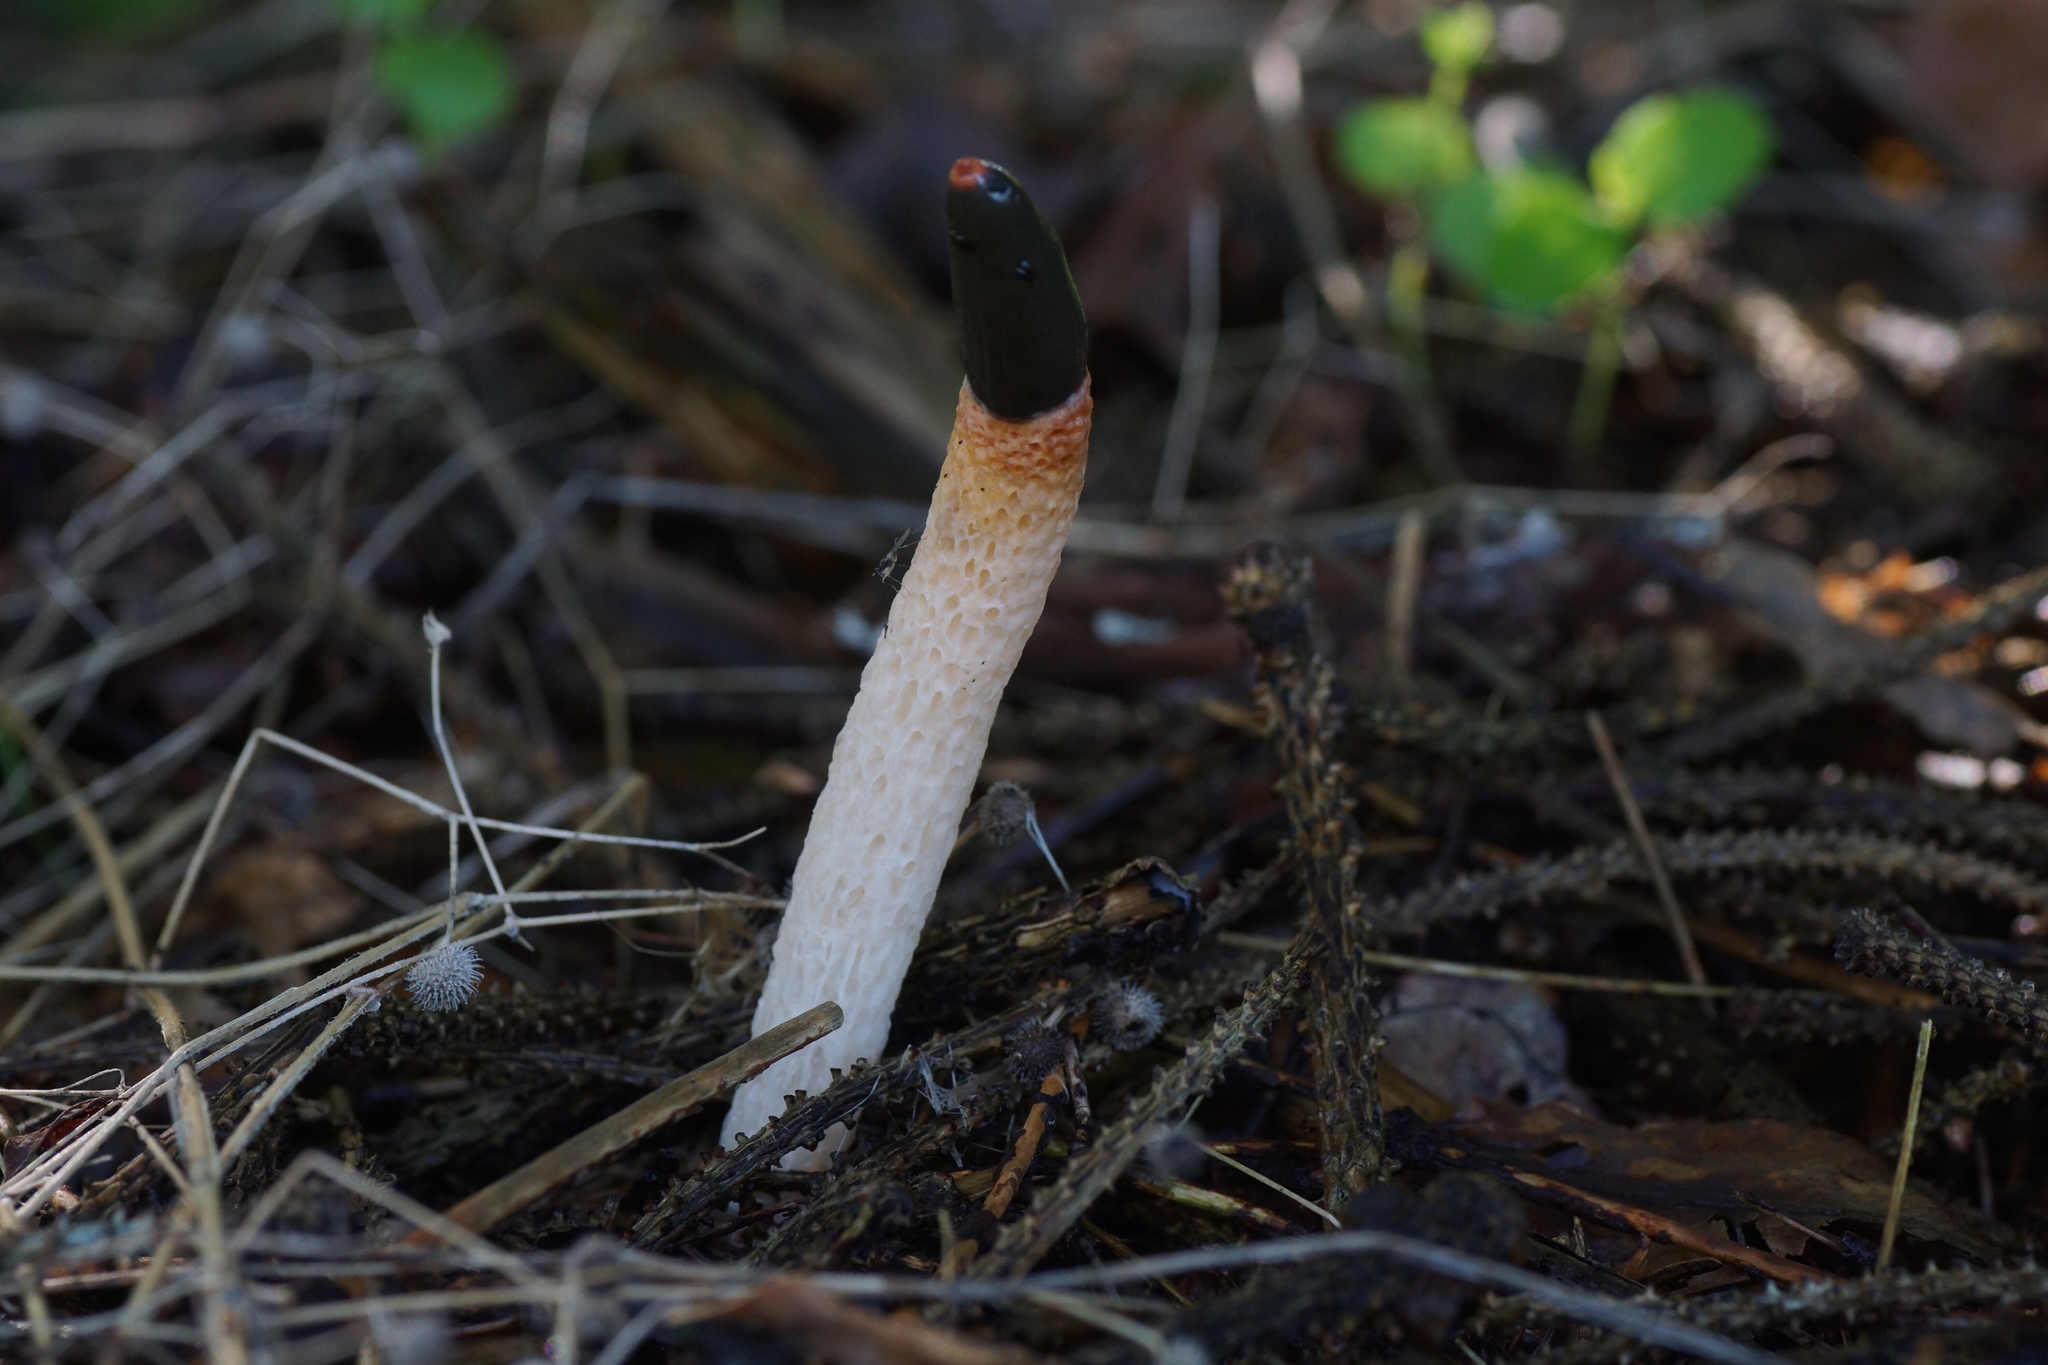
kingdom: Fungi
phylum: Basidiomycota
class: Agaricomycetes
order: Phallales
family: Phallaceae
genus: Mutinus
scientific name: Mutinus caninus
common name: Dog stinkhorn
